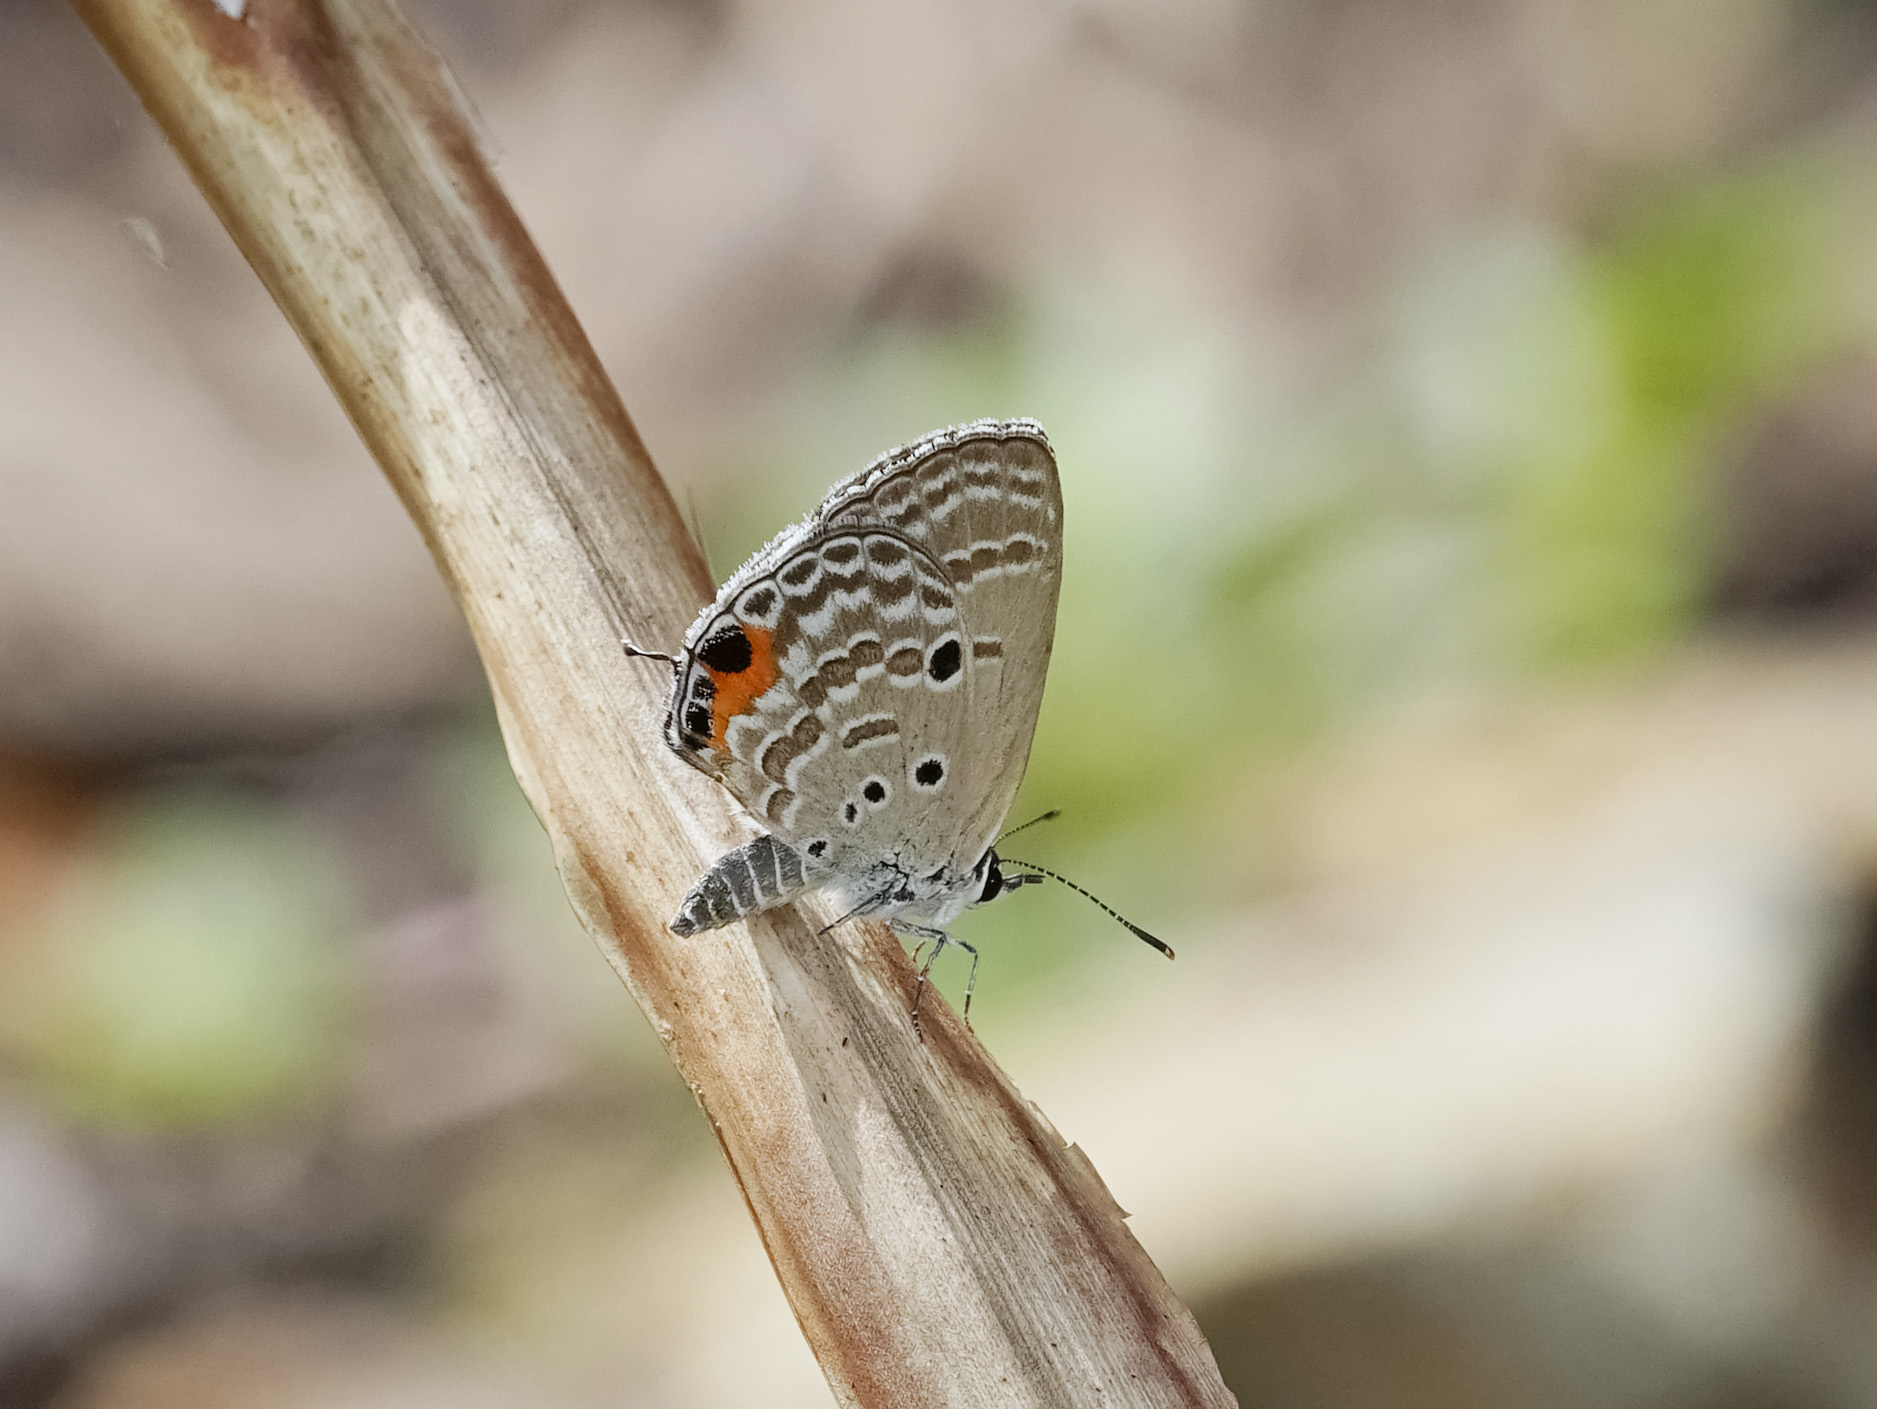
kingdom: Animalia
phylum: Arthropoda
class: Insecta
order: Lepidoptera
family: Lycaenidae
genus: Luthrodes
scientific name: Luthrodes pandava
